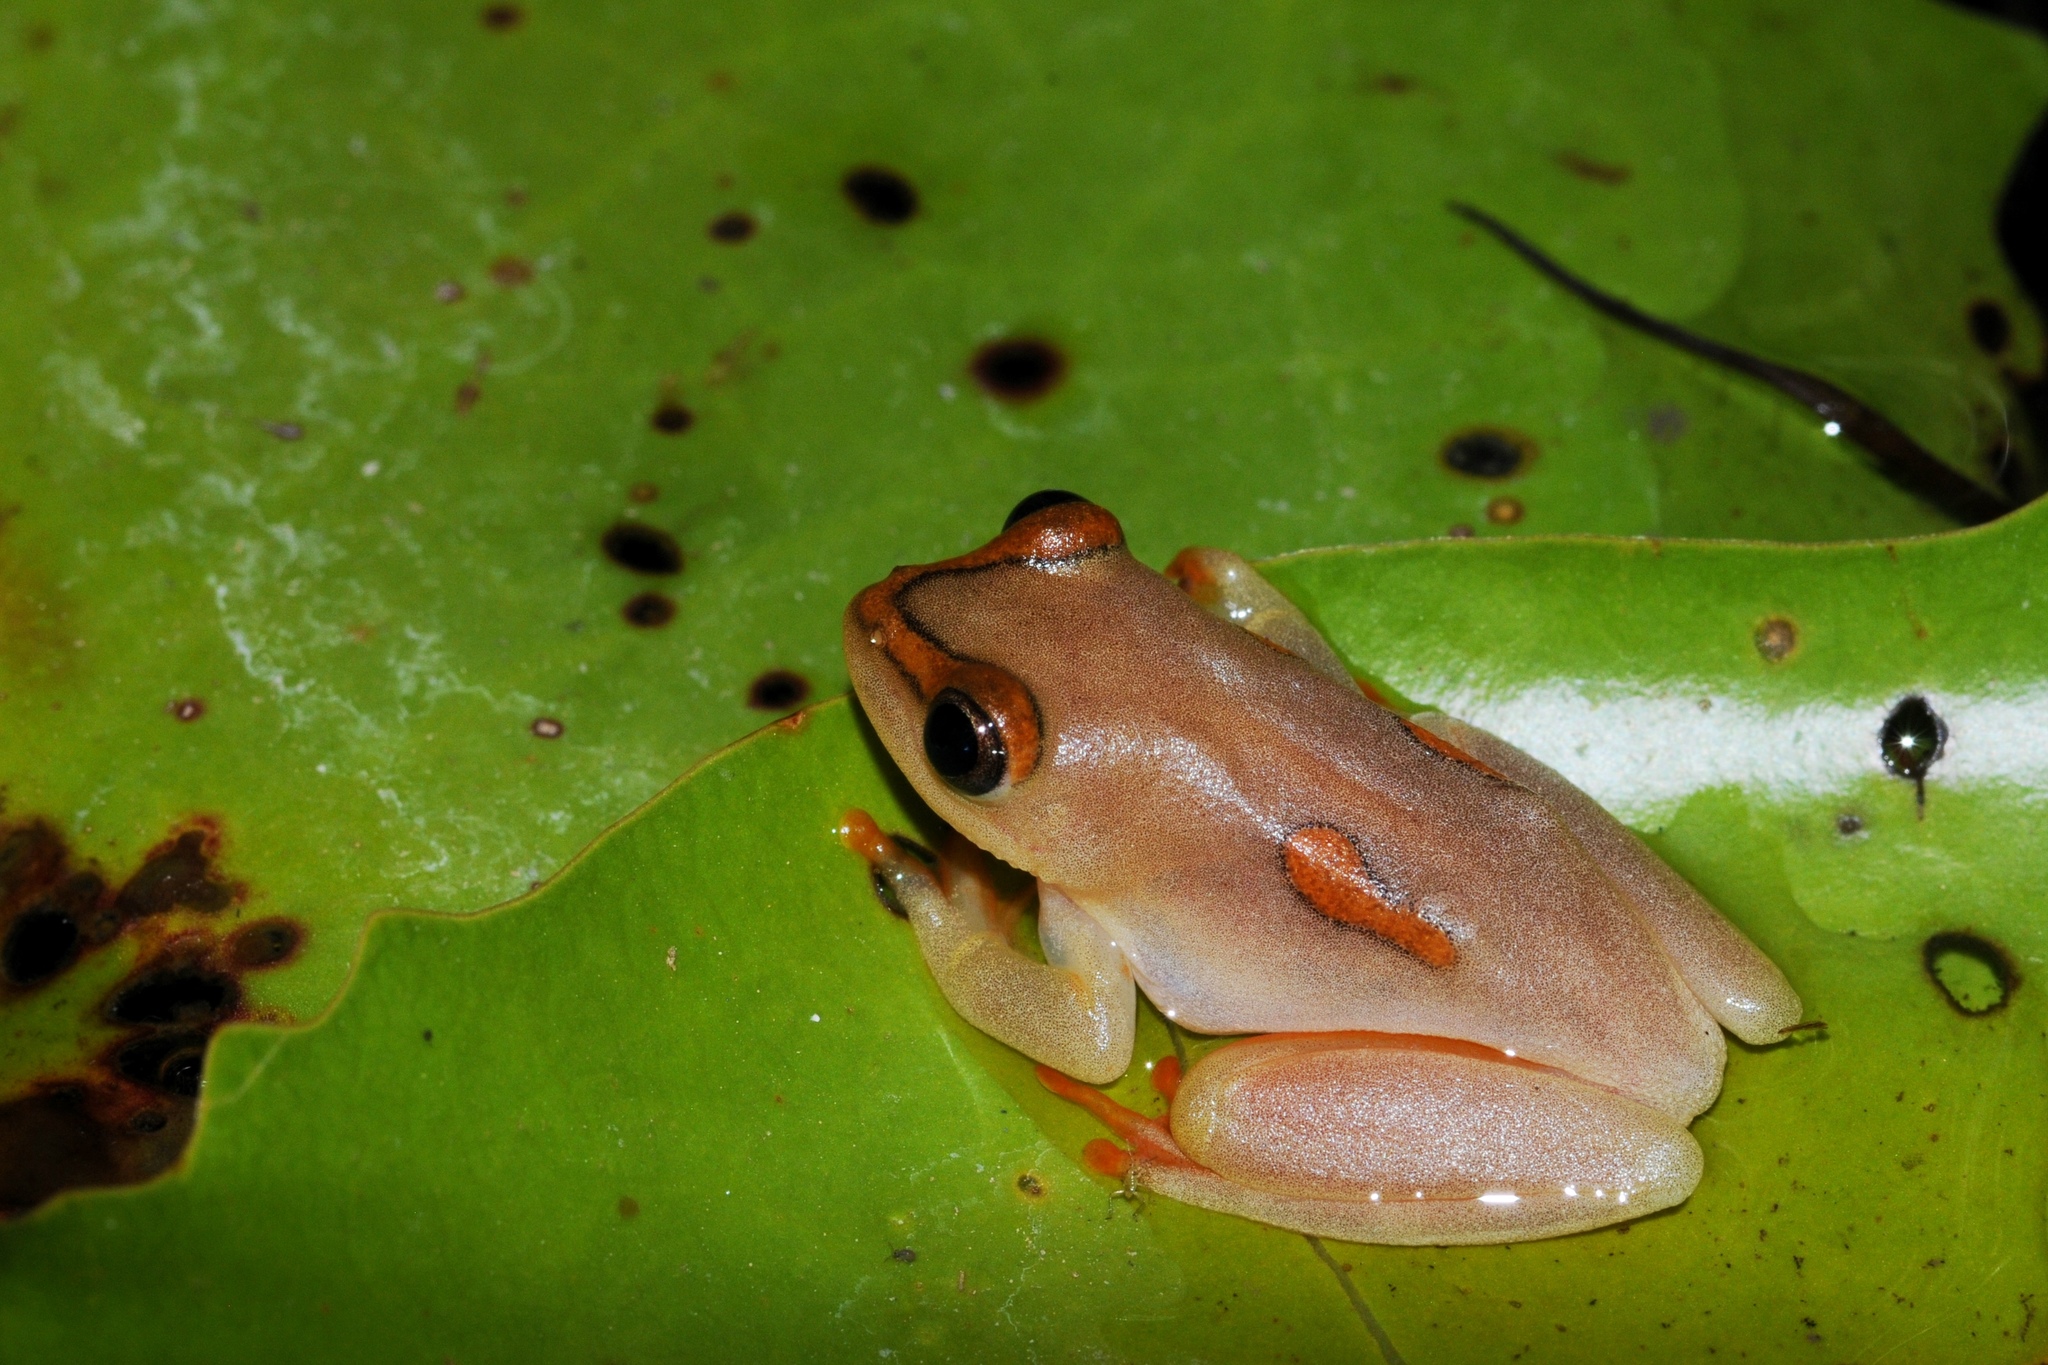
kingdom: Animalia
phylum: Chordata
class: Amphibia
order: Anura
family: Hyperoliidae
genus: Hyperolius
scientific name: Hyperolius argus
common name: Argus reed frog
